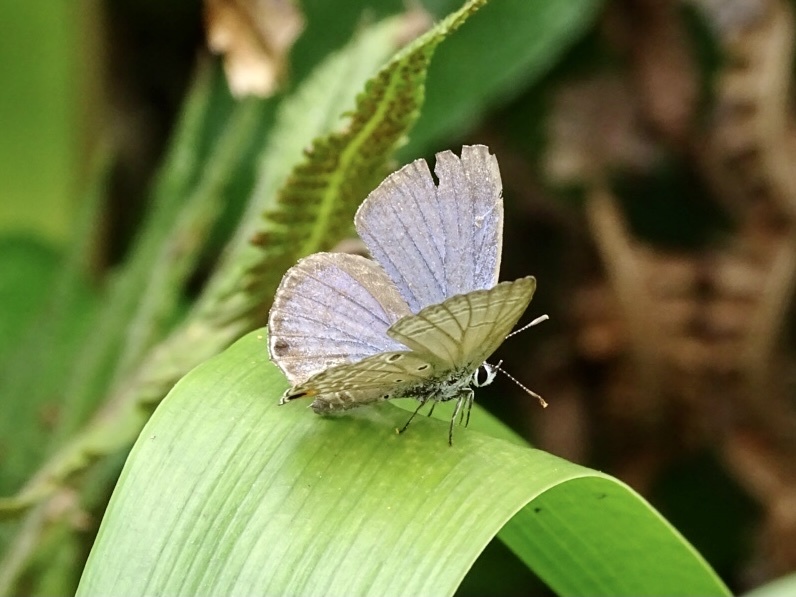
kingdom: Animalia
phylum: Arthropoda
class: Insecta
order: Lepidoptera
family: Lycaenidae
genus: Luthrodes
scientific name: Luthrodes pandava
